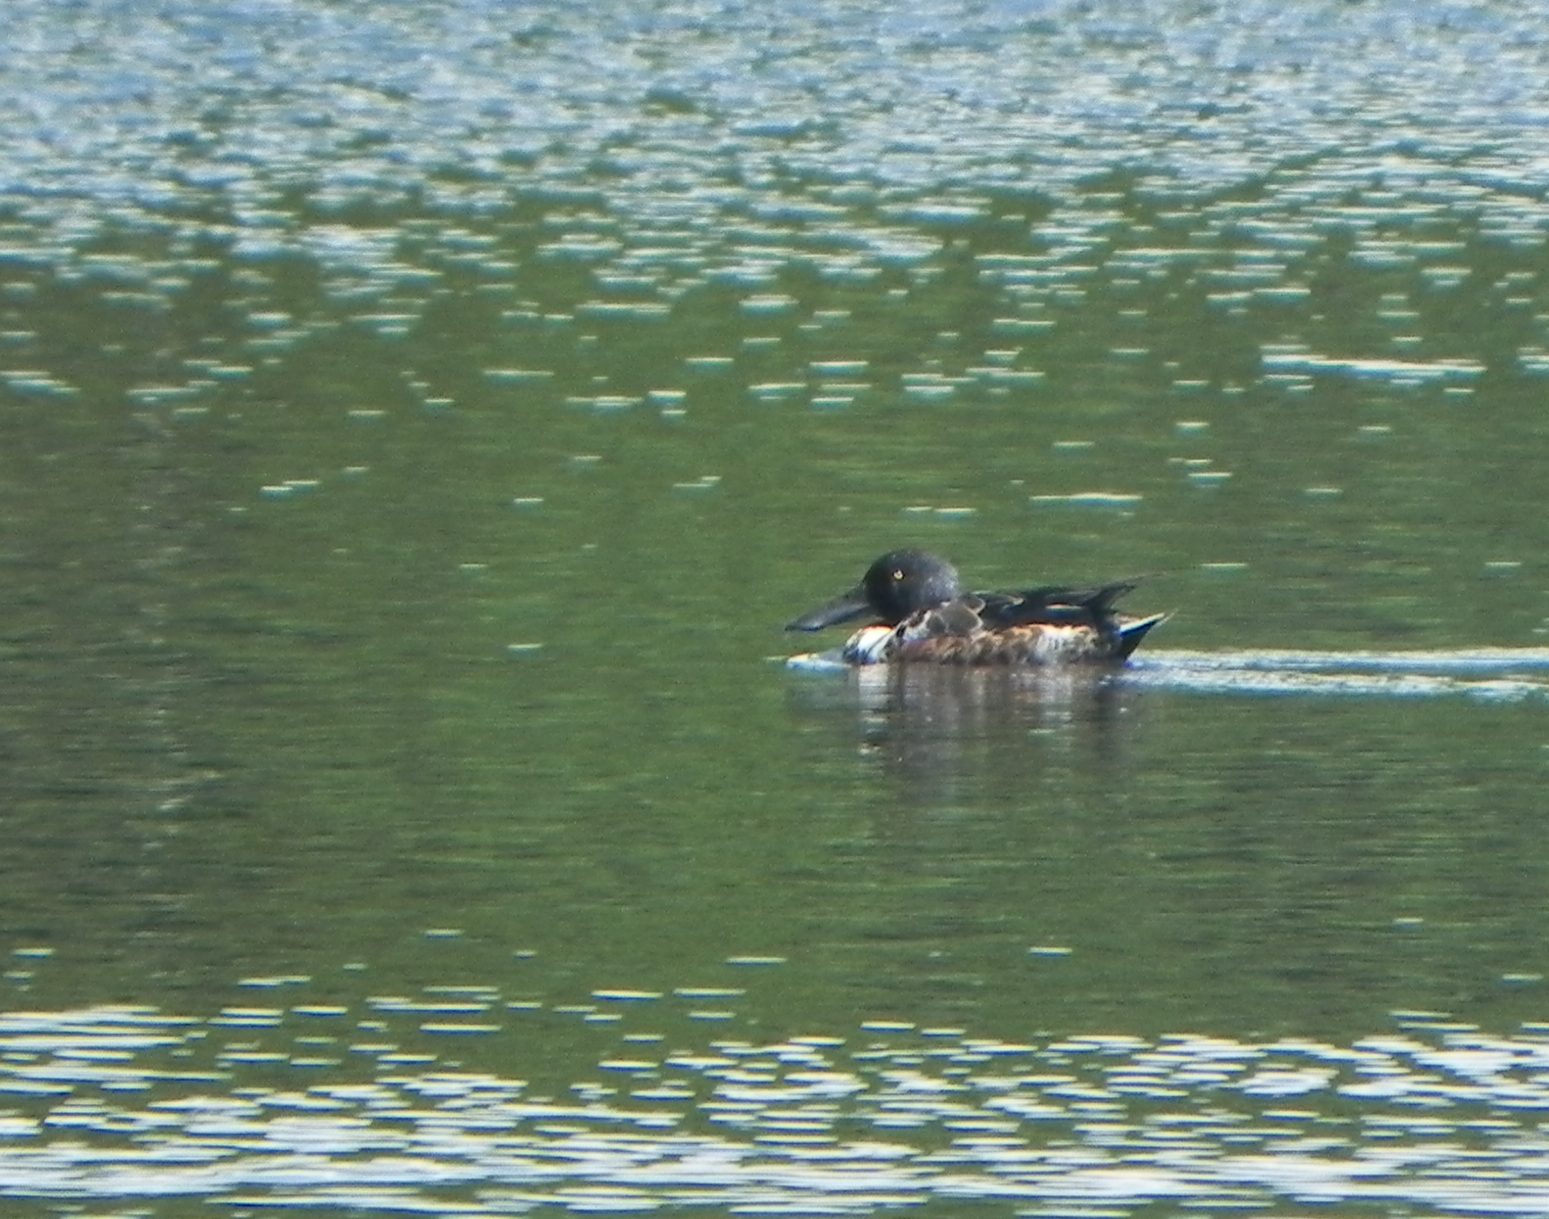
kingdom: Animalia
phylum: Chordata
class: Aves
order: Anseriformes
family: Anatidae
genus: Spatula
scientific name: Spatula clypeata
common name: Northern shoveler
